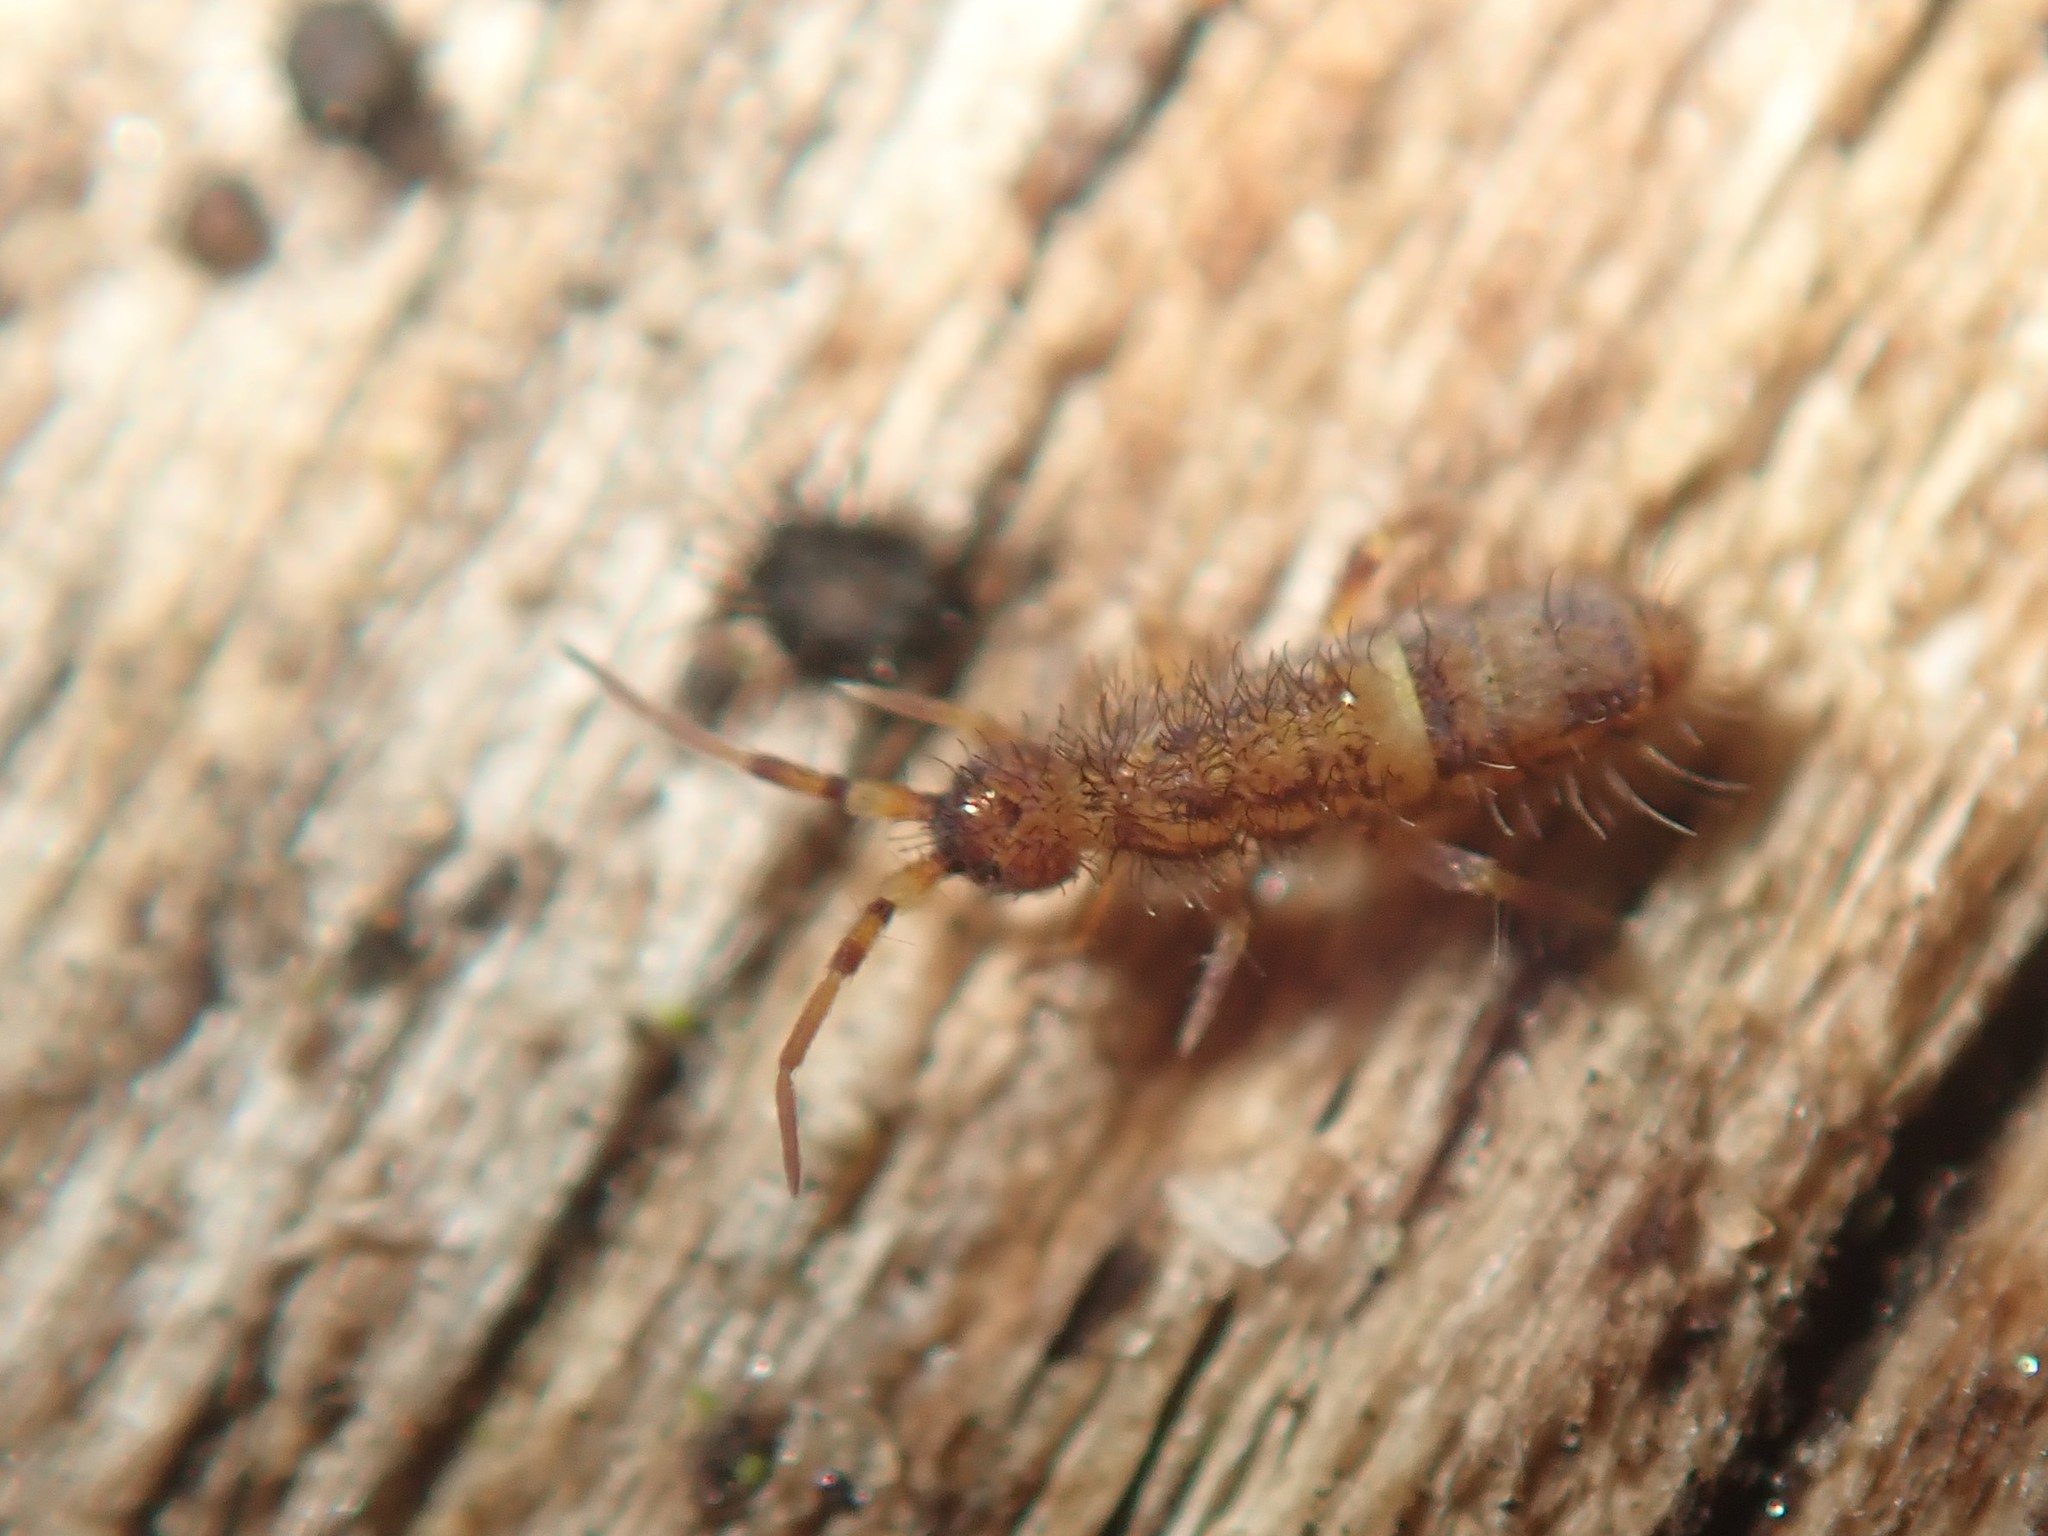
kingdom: Animalia
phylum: Arthropoda
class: Collembola
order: Entomobryomorpha
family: Orchesellidae
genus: Orchesella
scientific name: Orchesella cincta
